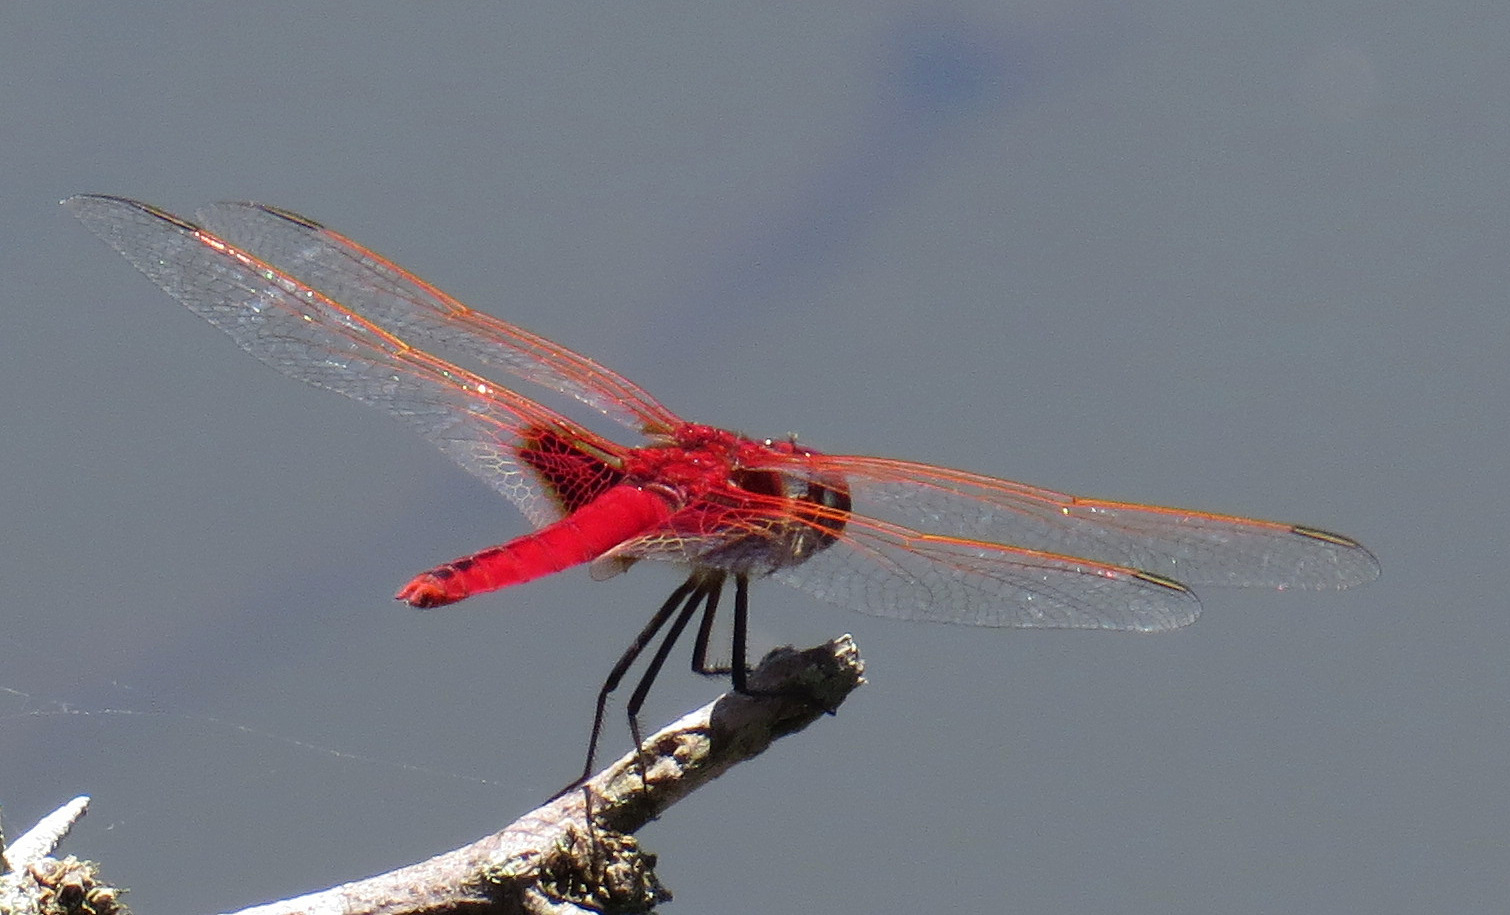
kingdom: Animalia
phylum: Arthropoda
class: Insecta
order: Odonata
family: Libellulidae
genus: Urothemis
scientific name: Urothemis assignata
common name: Red basker
